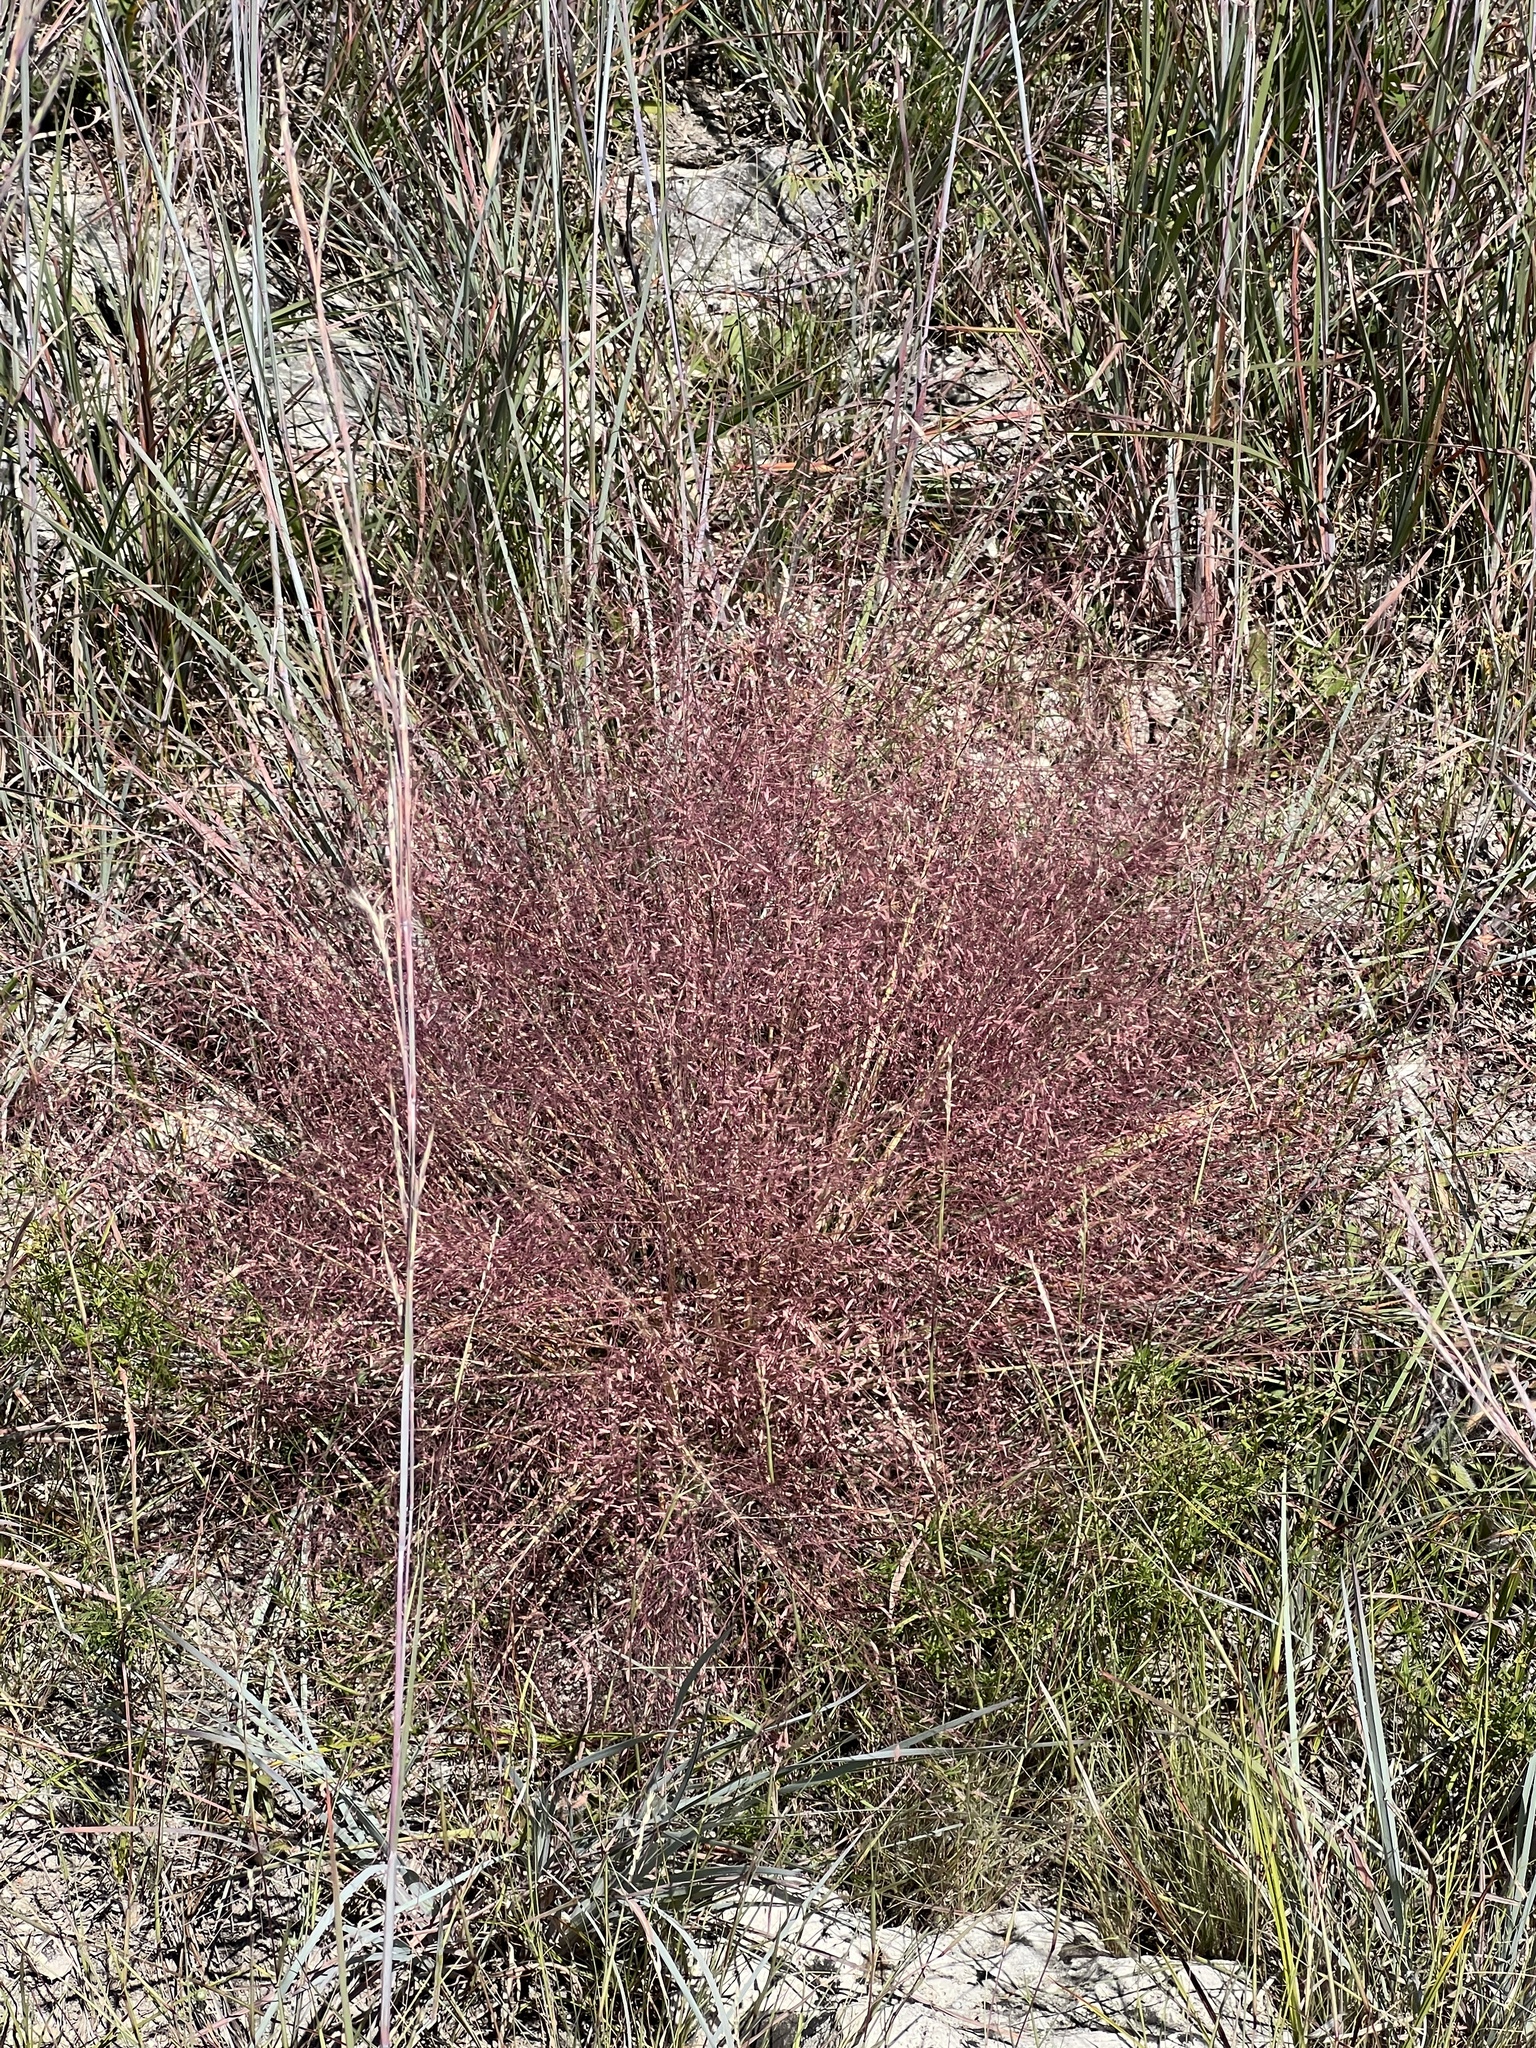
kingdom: Plantae
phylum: Tracheophyta
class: Liliopsida
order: Poales
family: Poaceae
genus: Eragrostis
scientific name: Eragrostis spectabilis
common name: Petticoat-climber
